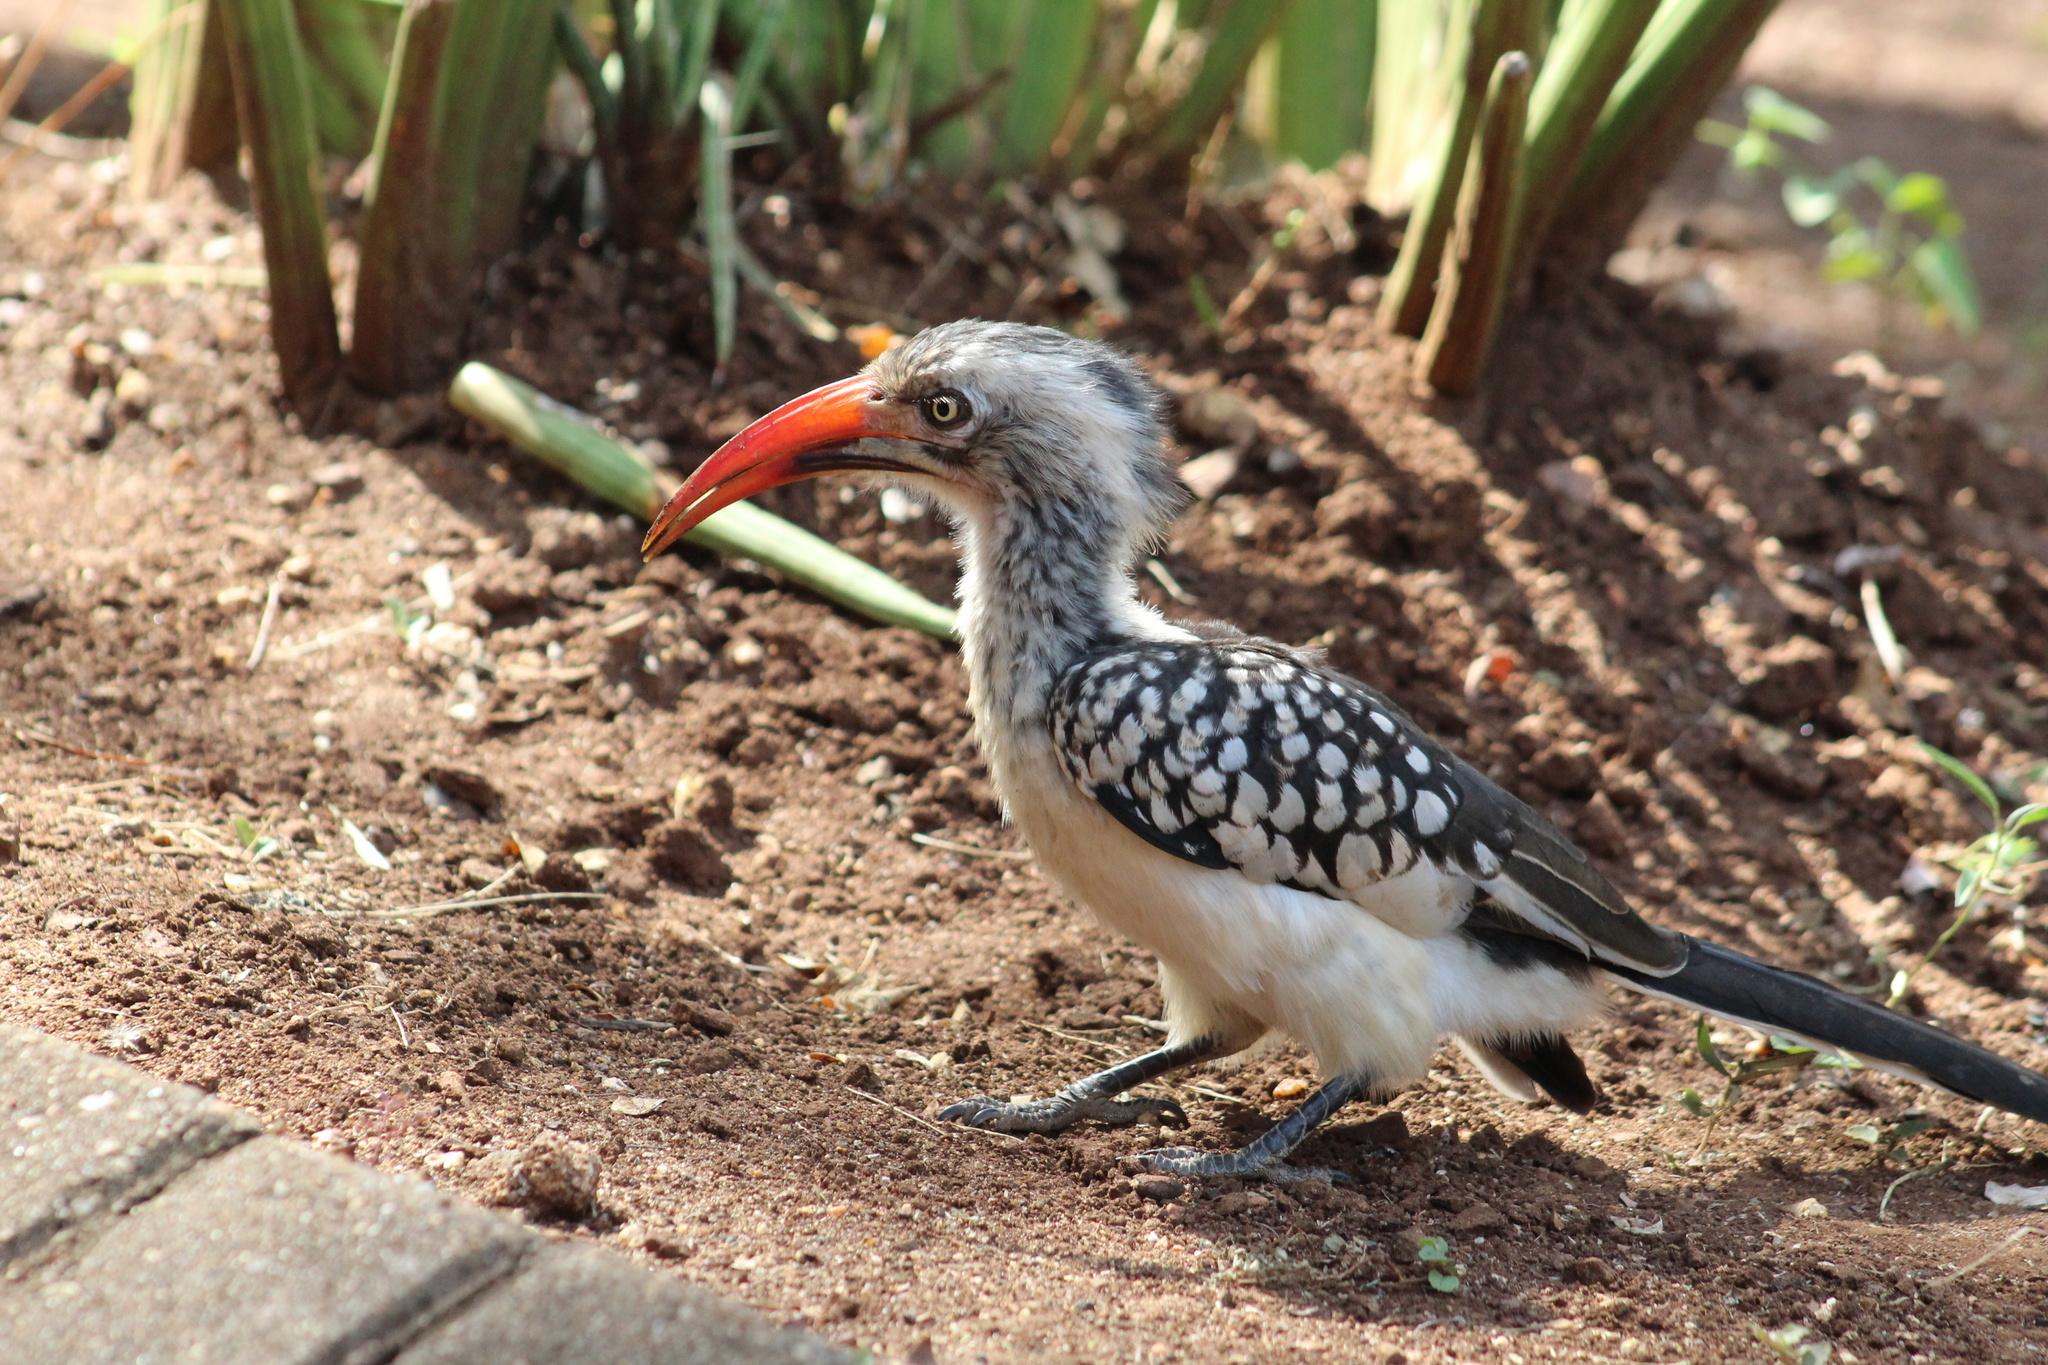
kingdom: Animalia
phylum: Chordata
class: Aves
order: Bucerotiformes
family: Bucerotidae
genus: Tockus
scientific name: Tockus rufirostris
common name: Southern red-billed hornbill
